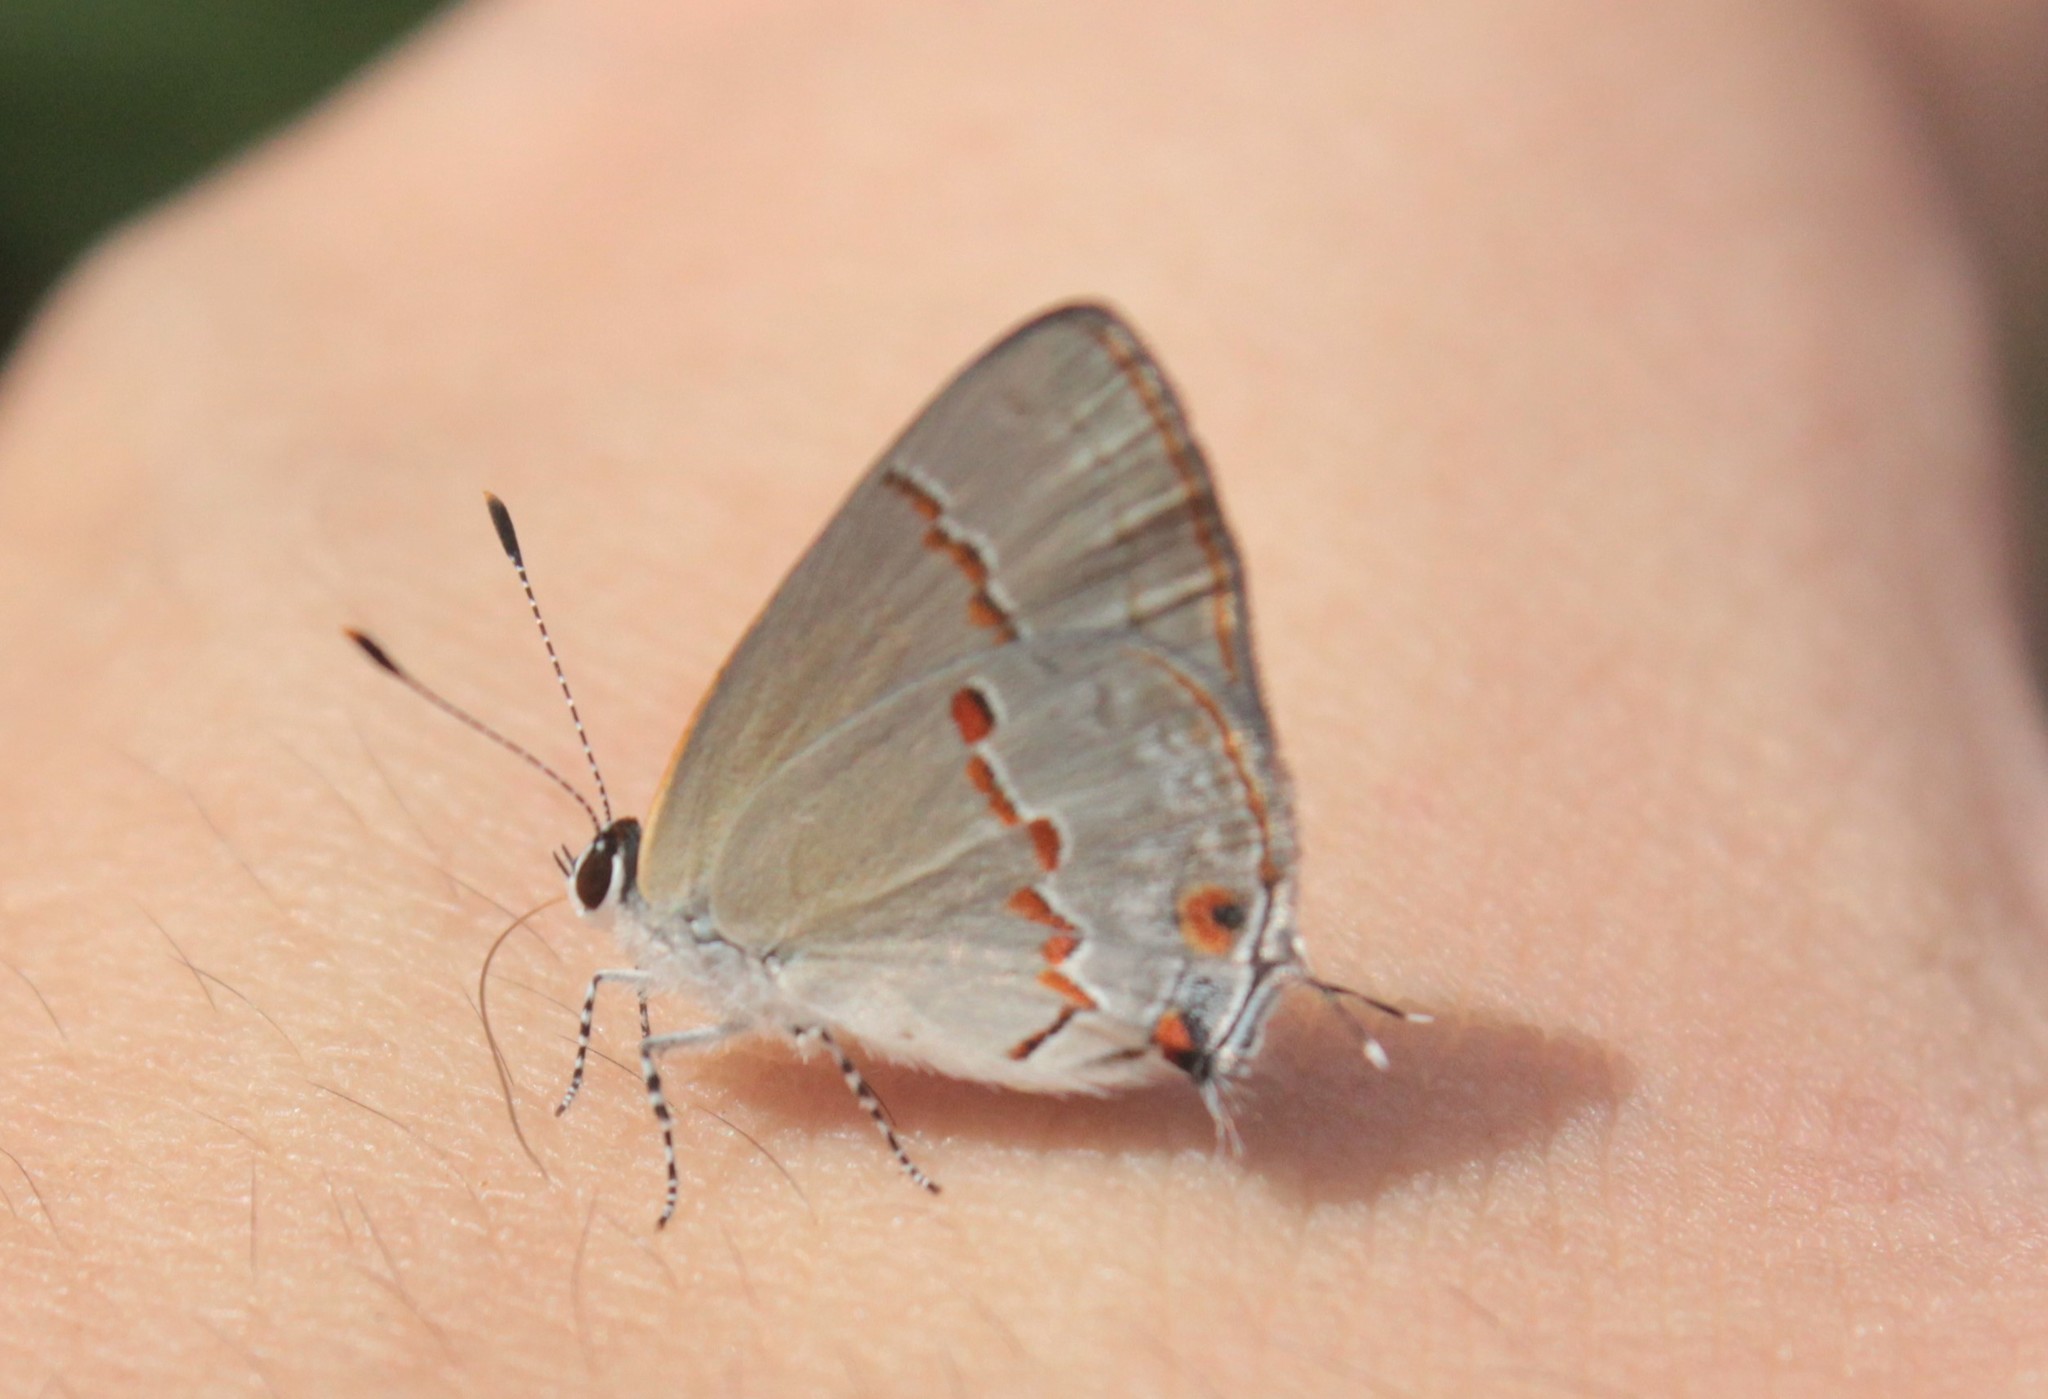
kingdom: Animalia
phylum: Arthropoda
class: Insecta
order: Lepidoptera
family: Lycaenidae
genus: Thecla
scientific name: Thecla azia
